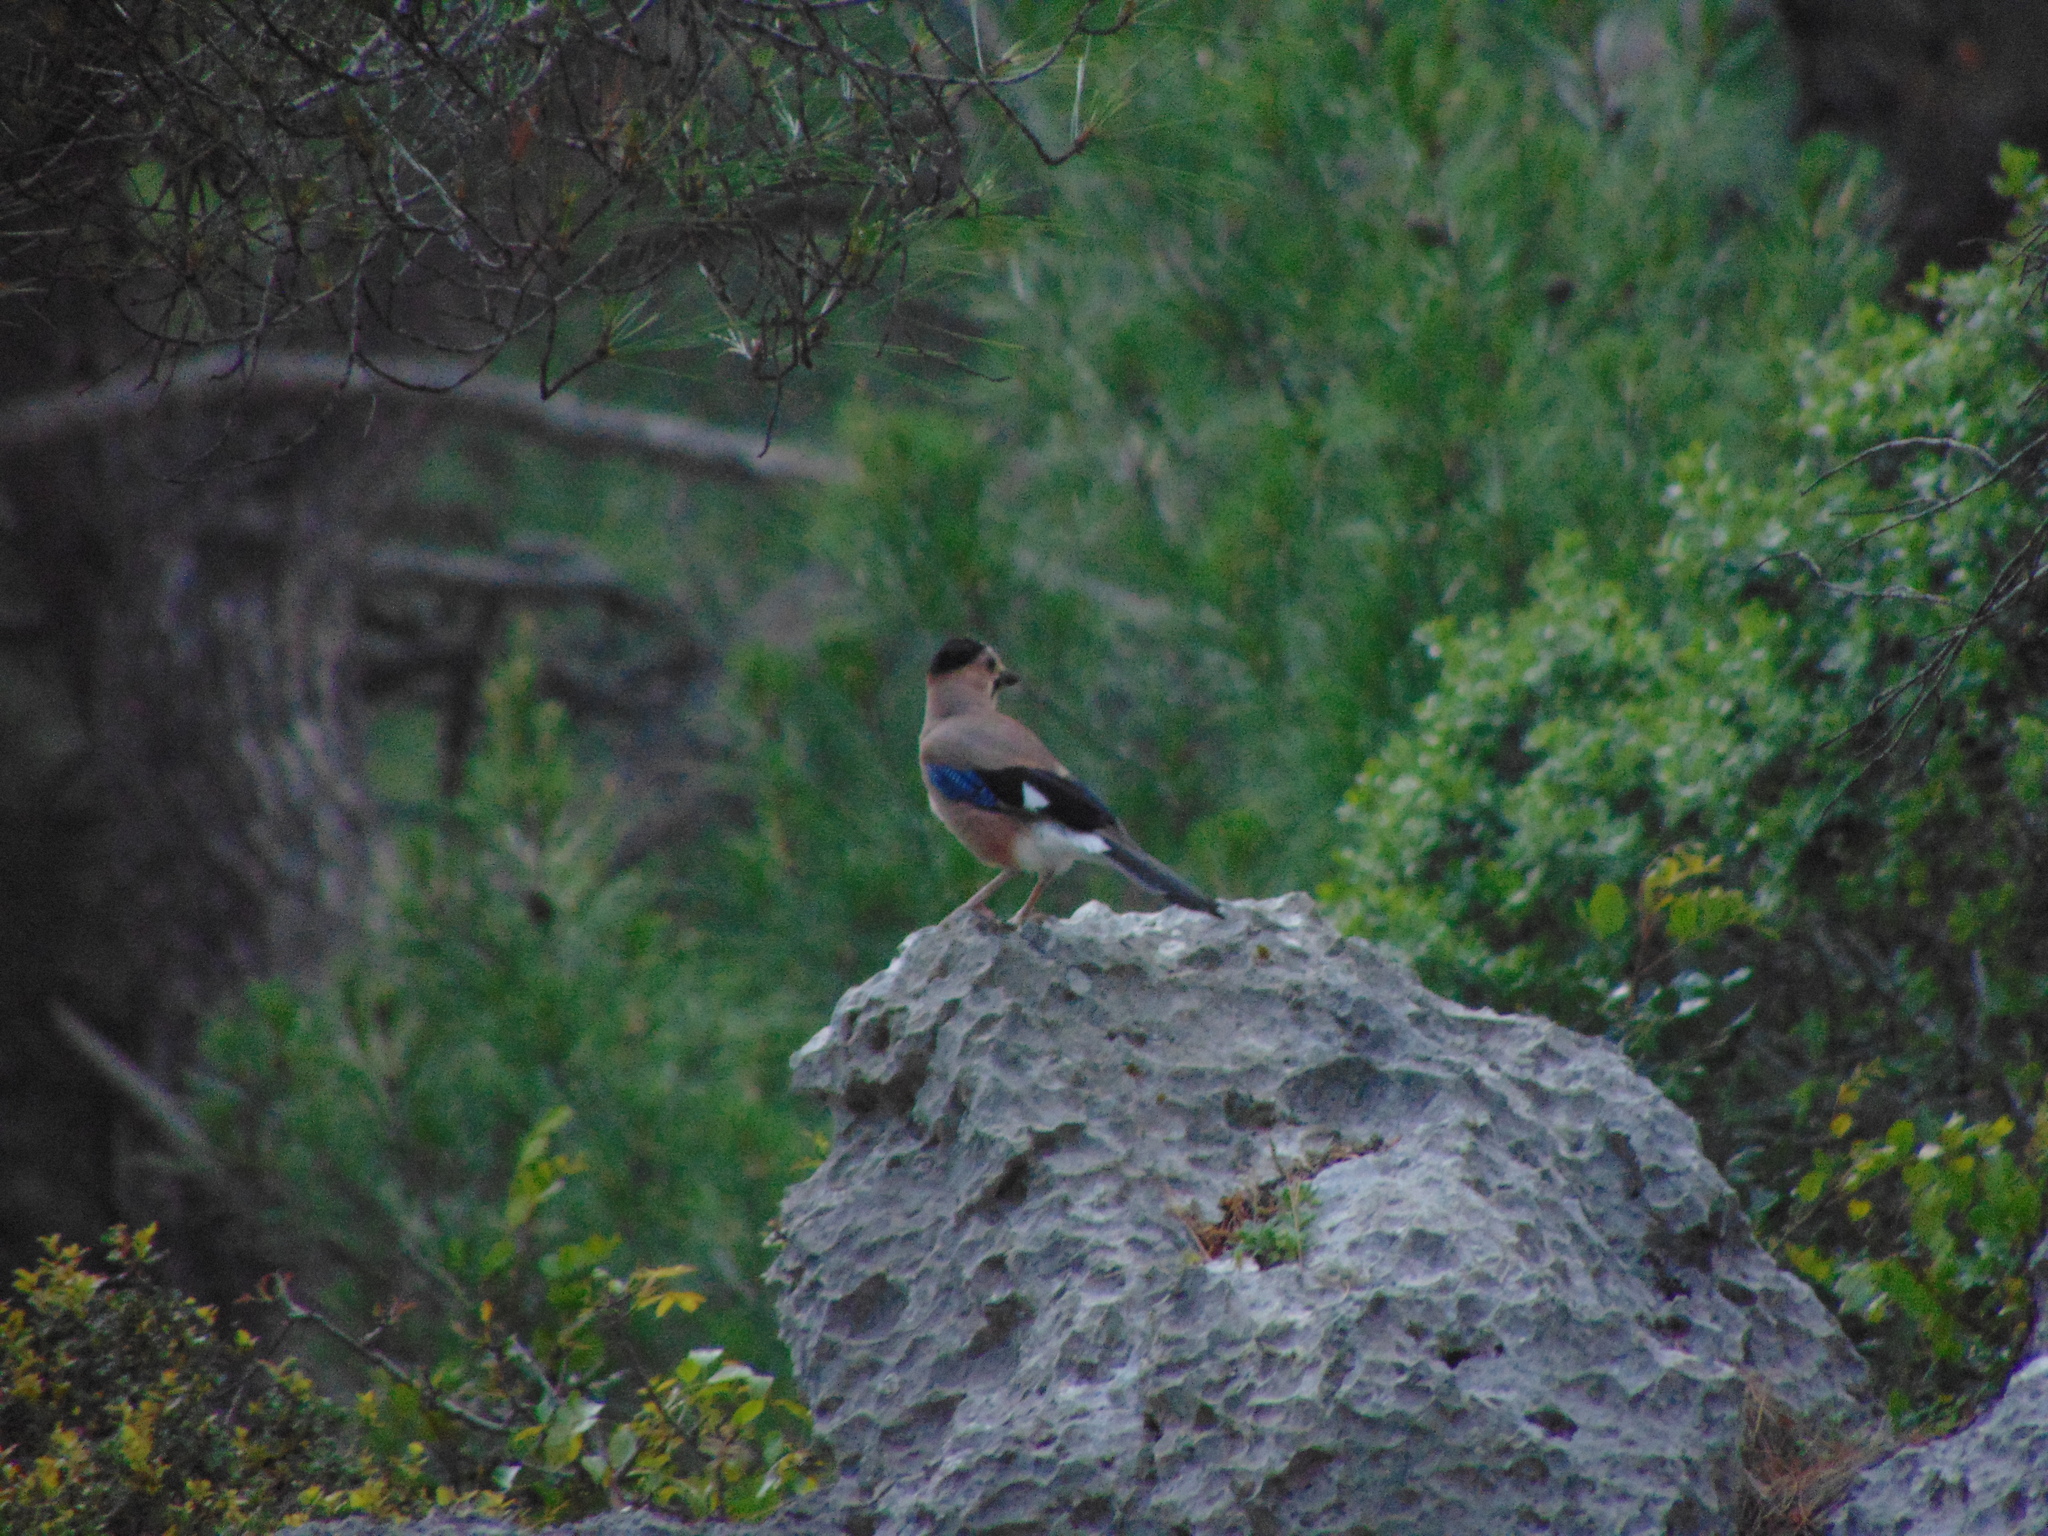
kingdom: Animalia
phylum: Chordata
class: Aves
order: Passeriformes
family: Corvidae
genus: Garrulus
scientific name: Garrulus glandarius
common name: Eurasian jay
